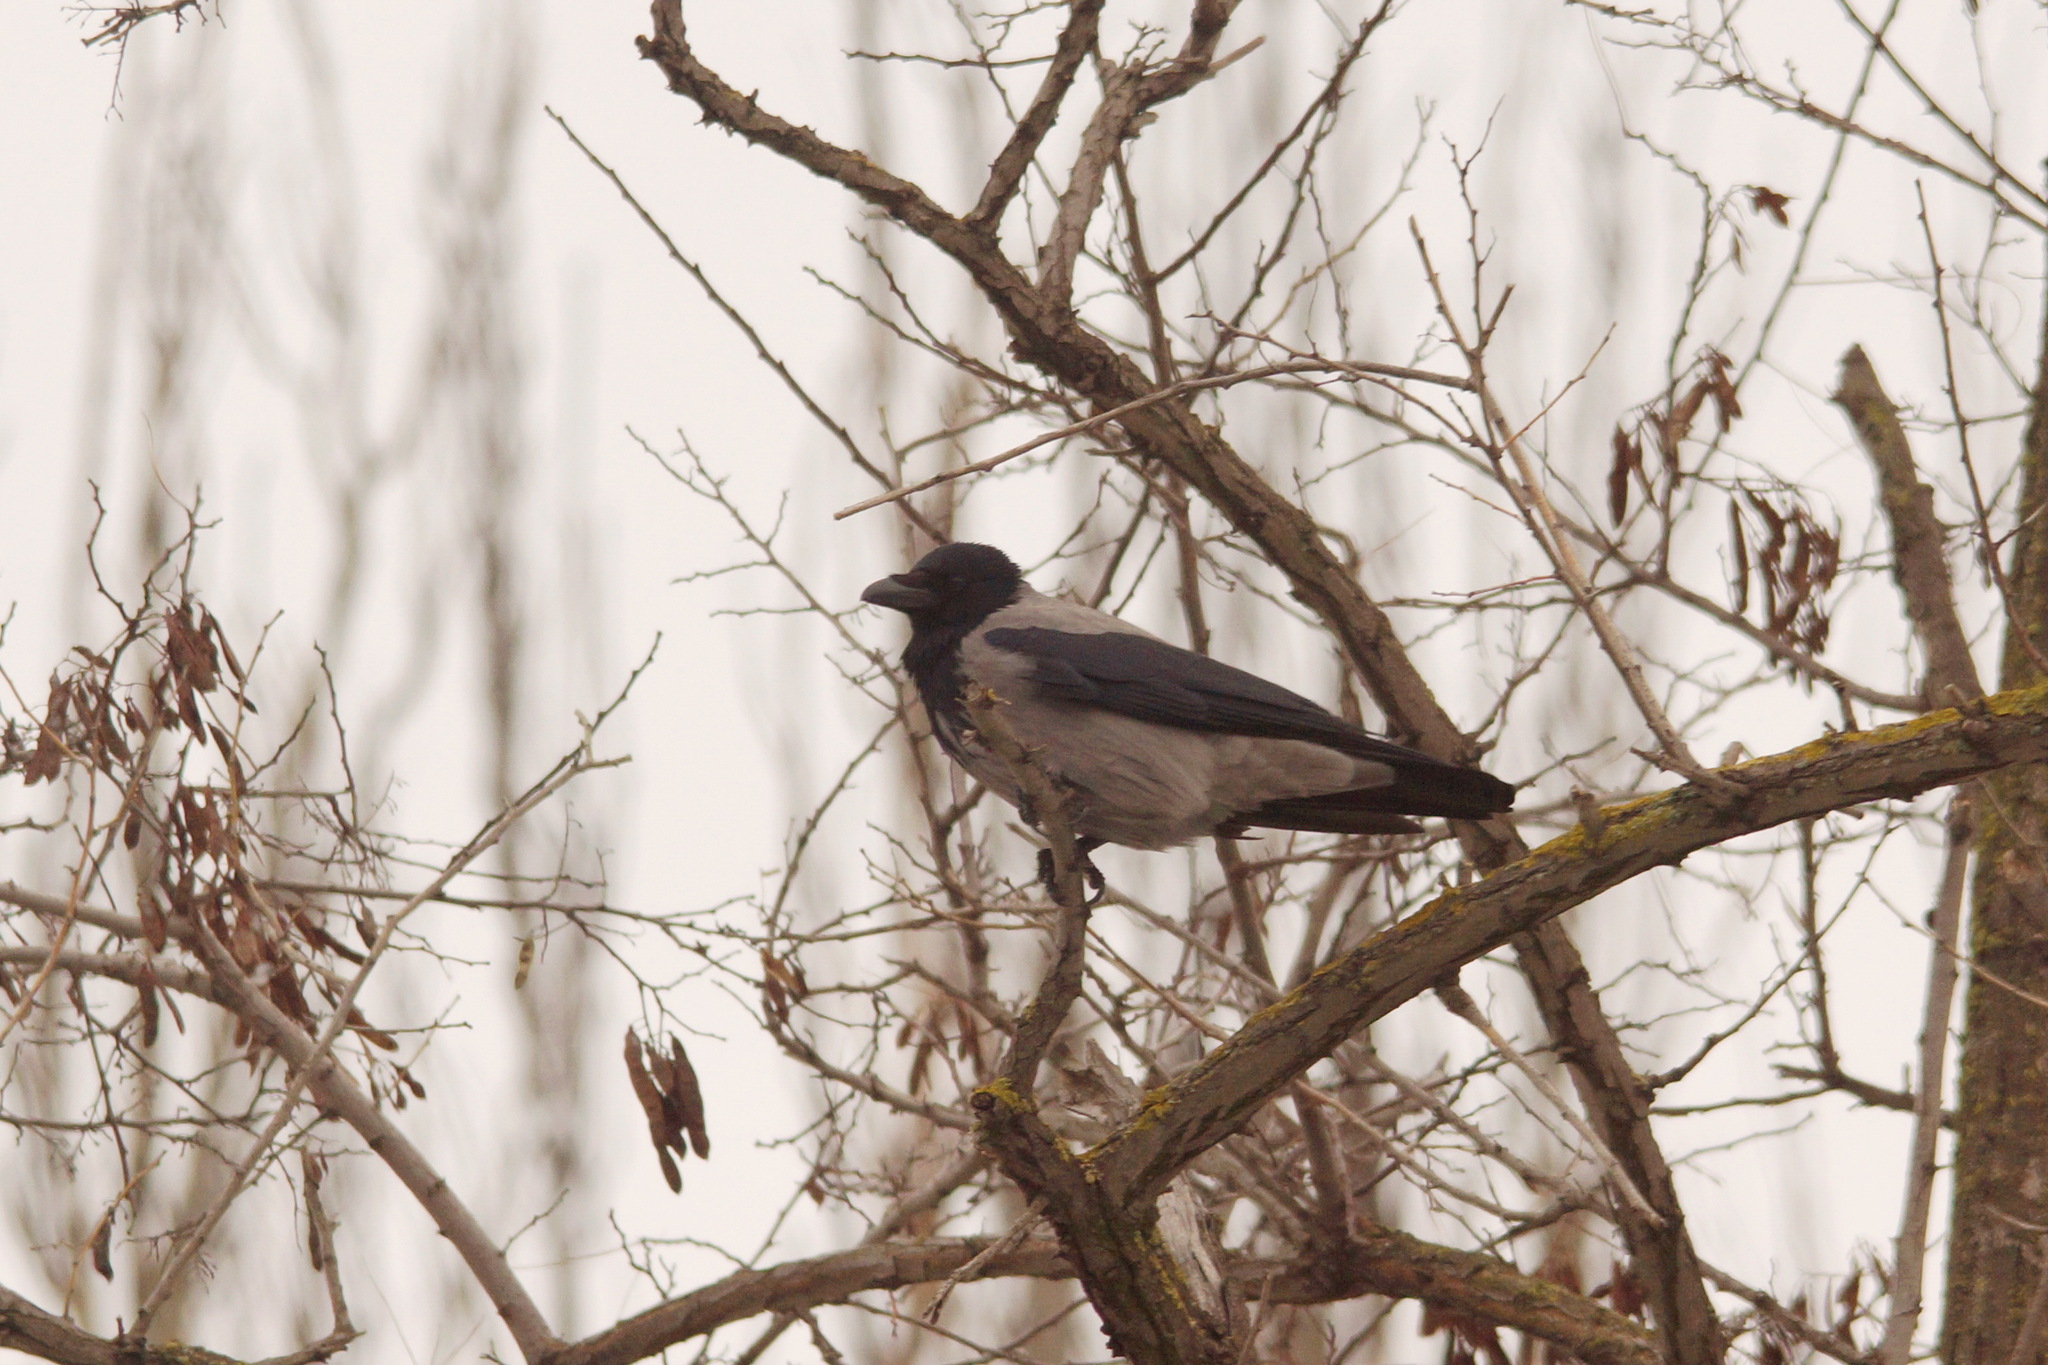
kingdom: Animalia
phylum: Chordata
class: Aves
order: Passeriformes
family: Corvidae
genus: Corvus
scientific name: Corvus cornix
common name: Hooded crow
